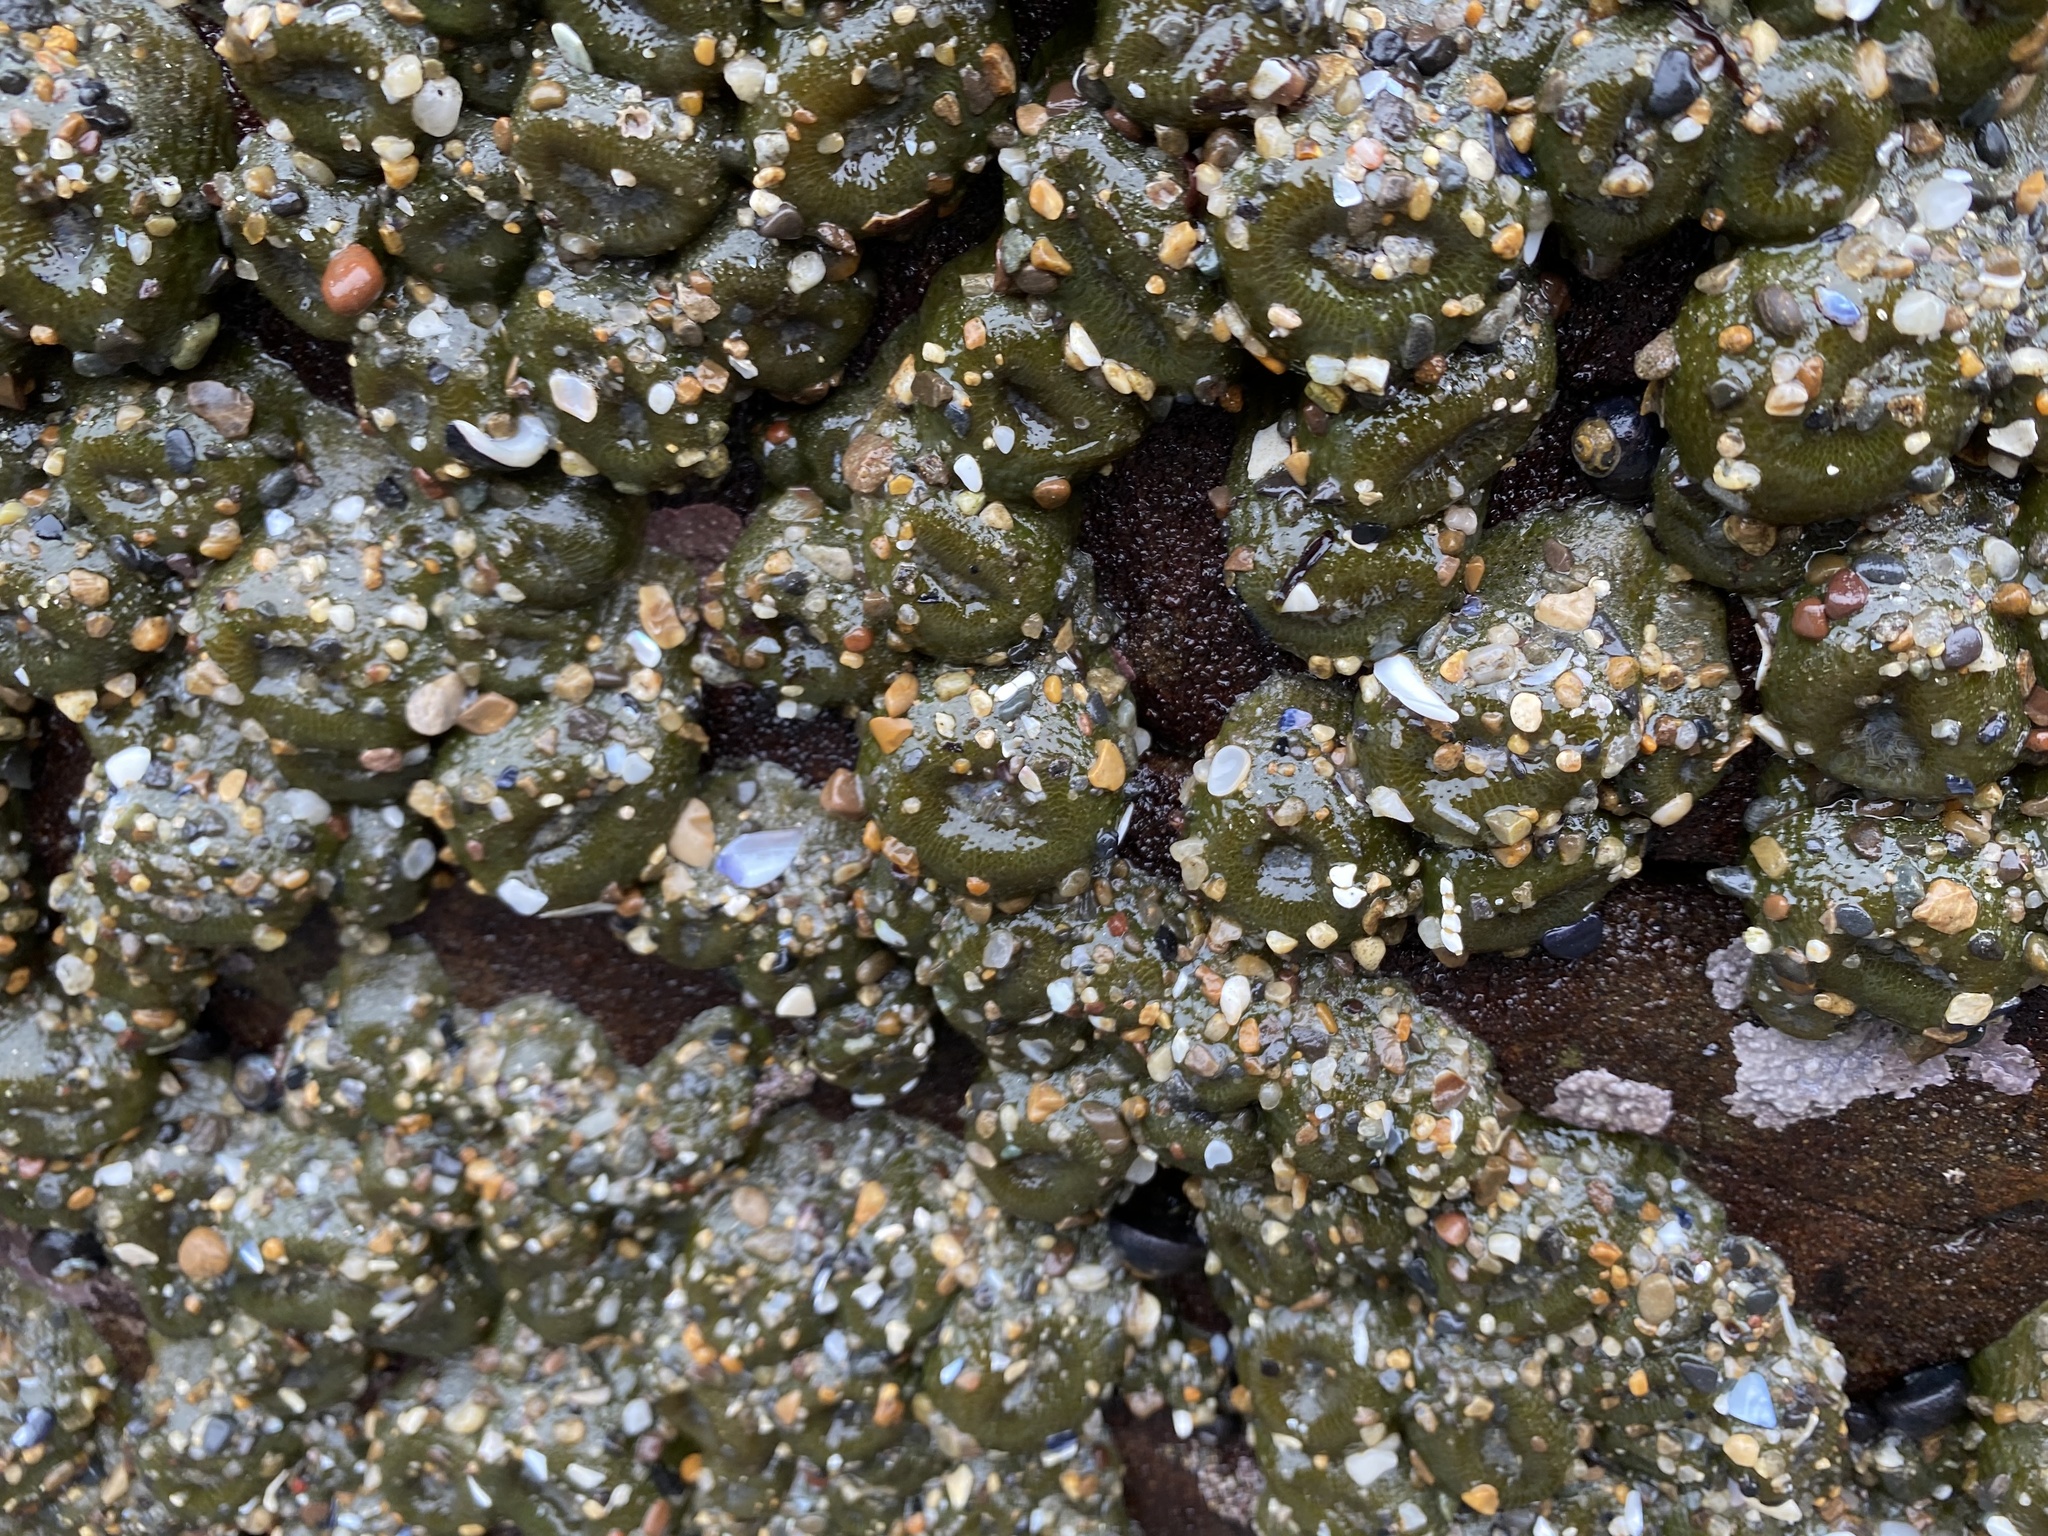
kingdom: Animalia
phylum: Cnidaria
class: Anthozoa
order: Actiniaria
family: Actiniidae
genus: Anthopleura
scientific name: Anthopleura elegantissima
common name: Clonal anemone
